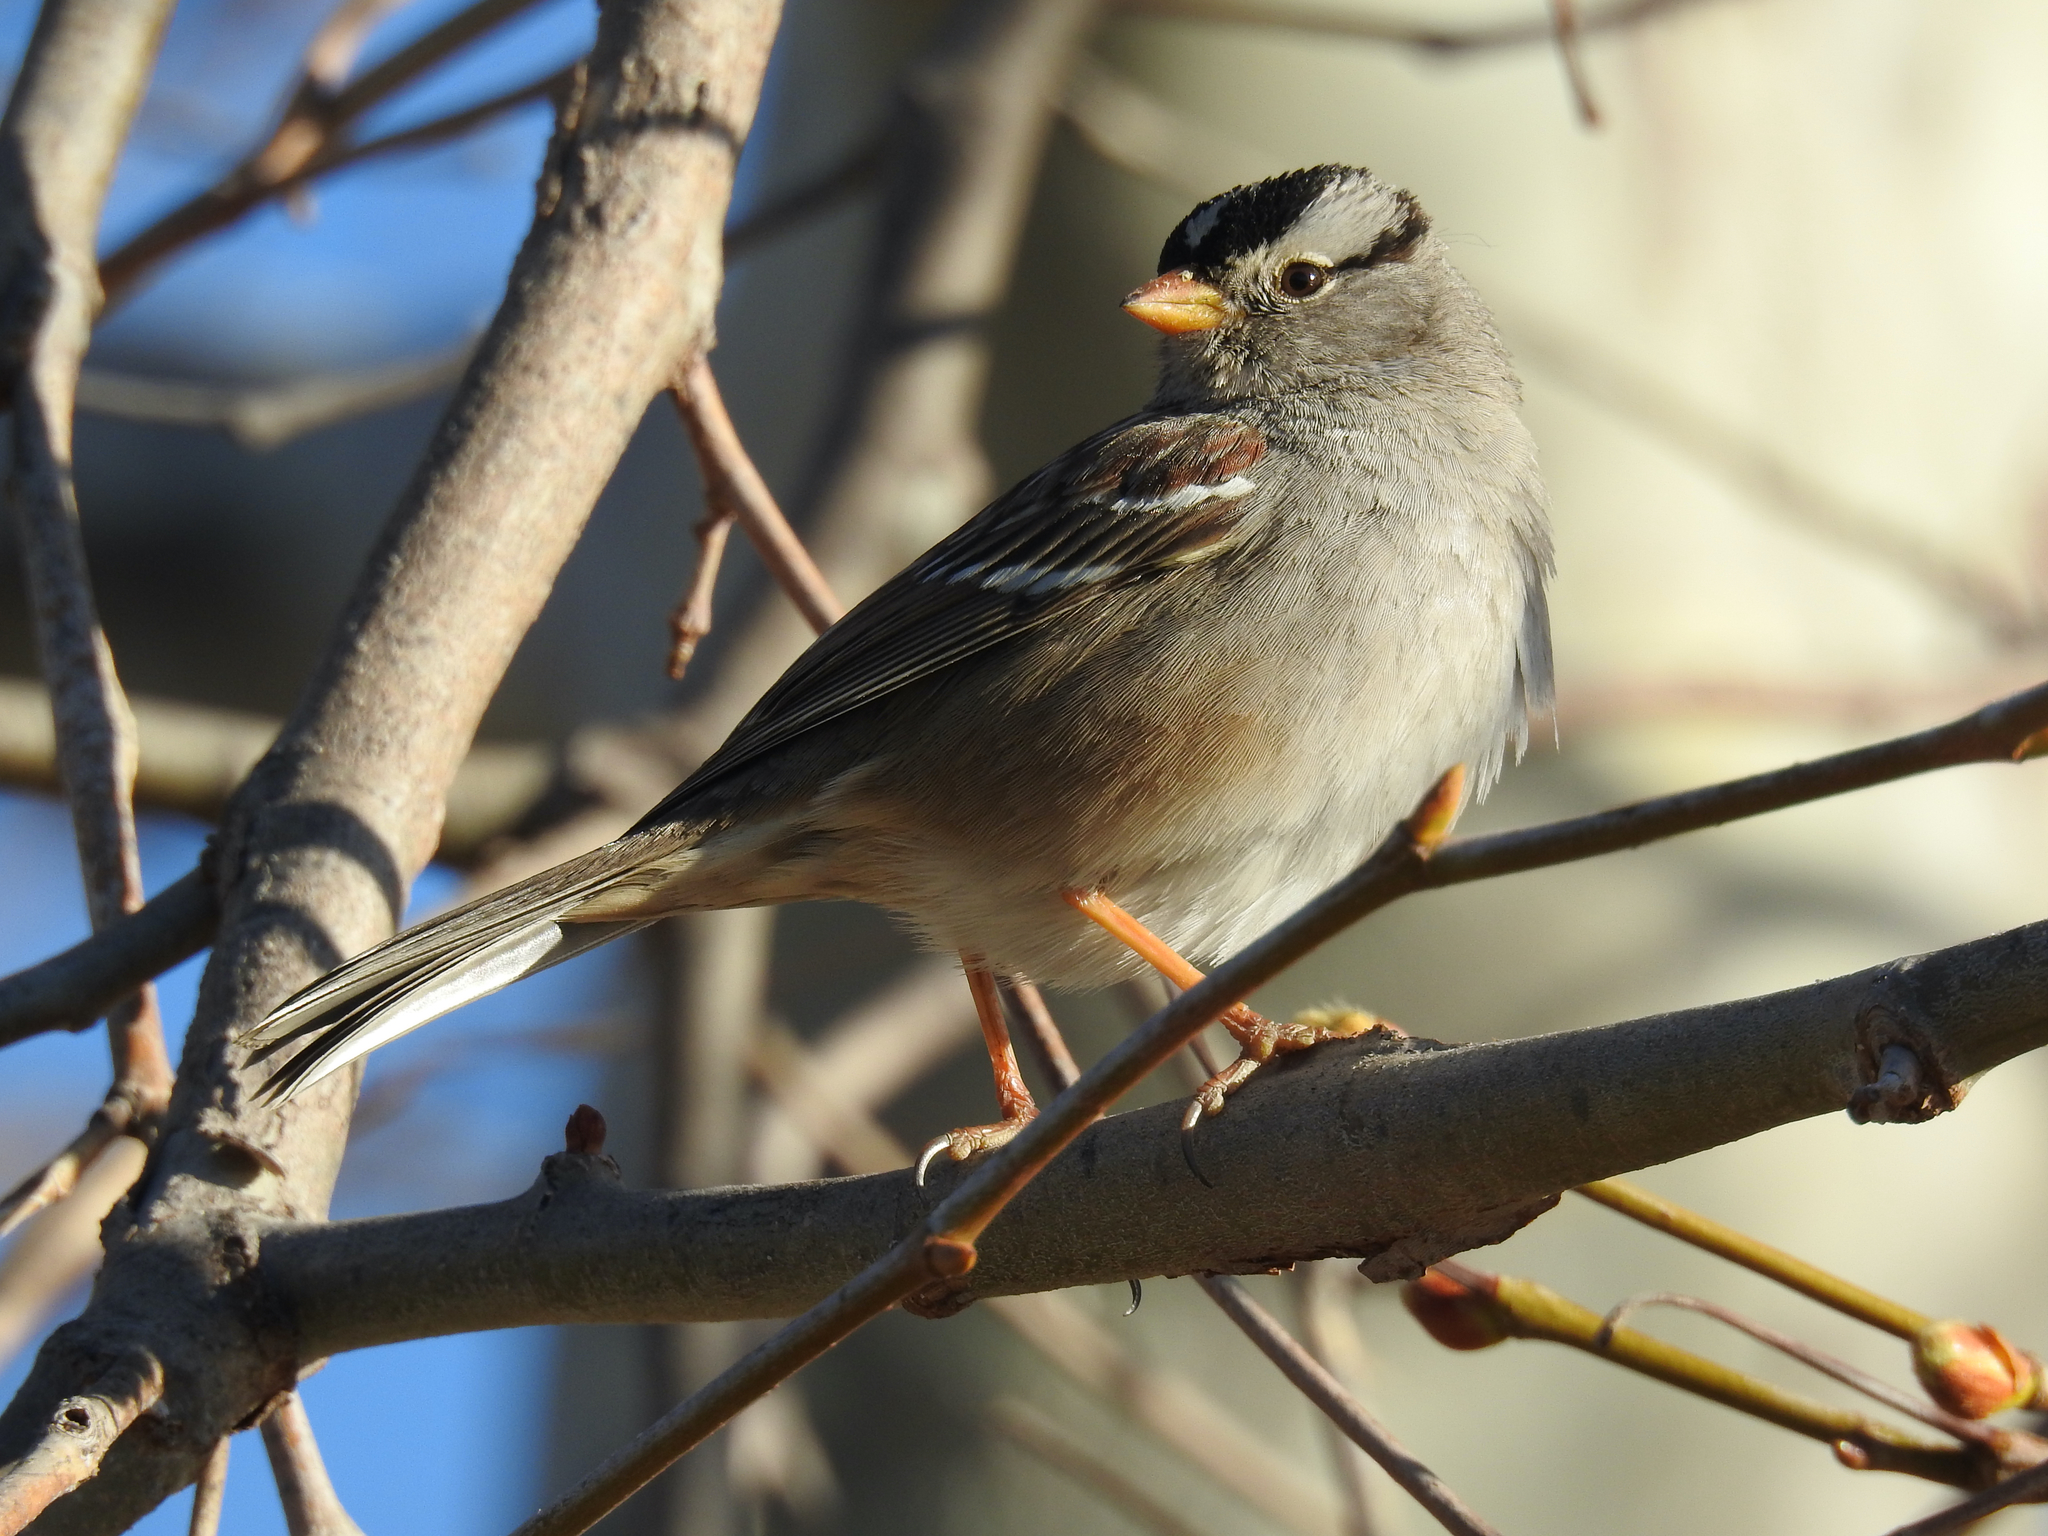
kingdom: Animalia
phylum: Chordata
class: Aves
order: Passeriformes
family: Passerellidae
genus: Zonotrichia
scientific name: Zonotrichia leucophrys
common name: White-crowned sparrow
